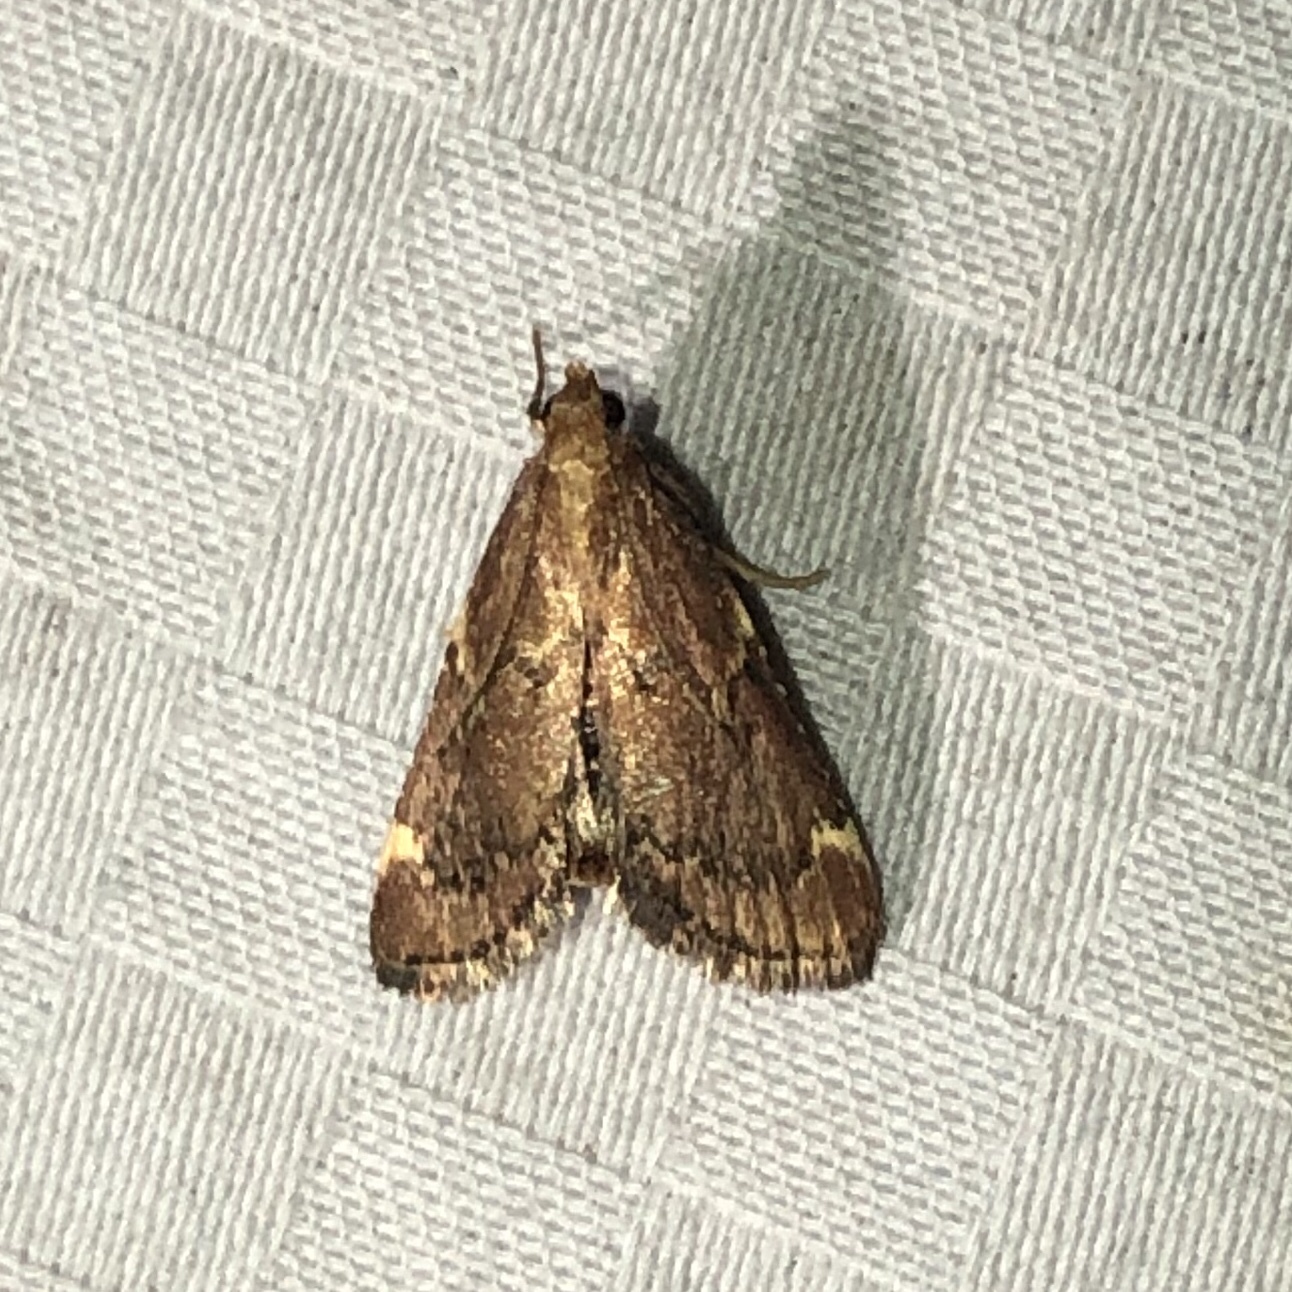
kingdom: Animalia
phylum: Arthropoda
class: Insecta
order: Lepidoptera
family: Pyralidae
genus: Hypsopygia
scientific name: Hypsopygia intermedialis
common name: Red-shawled moth
